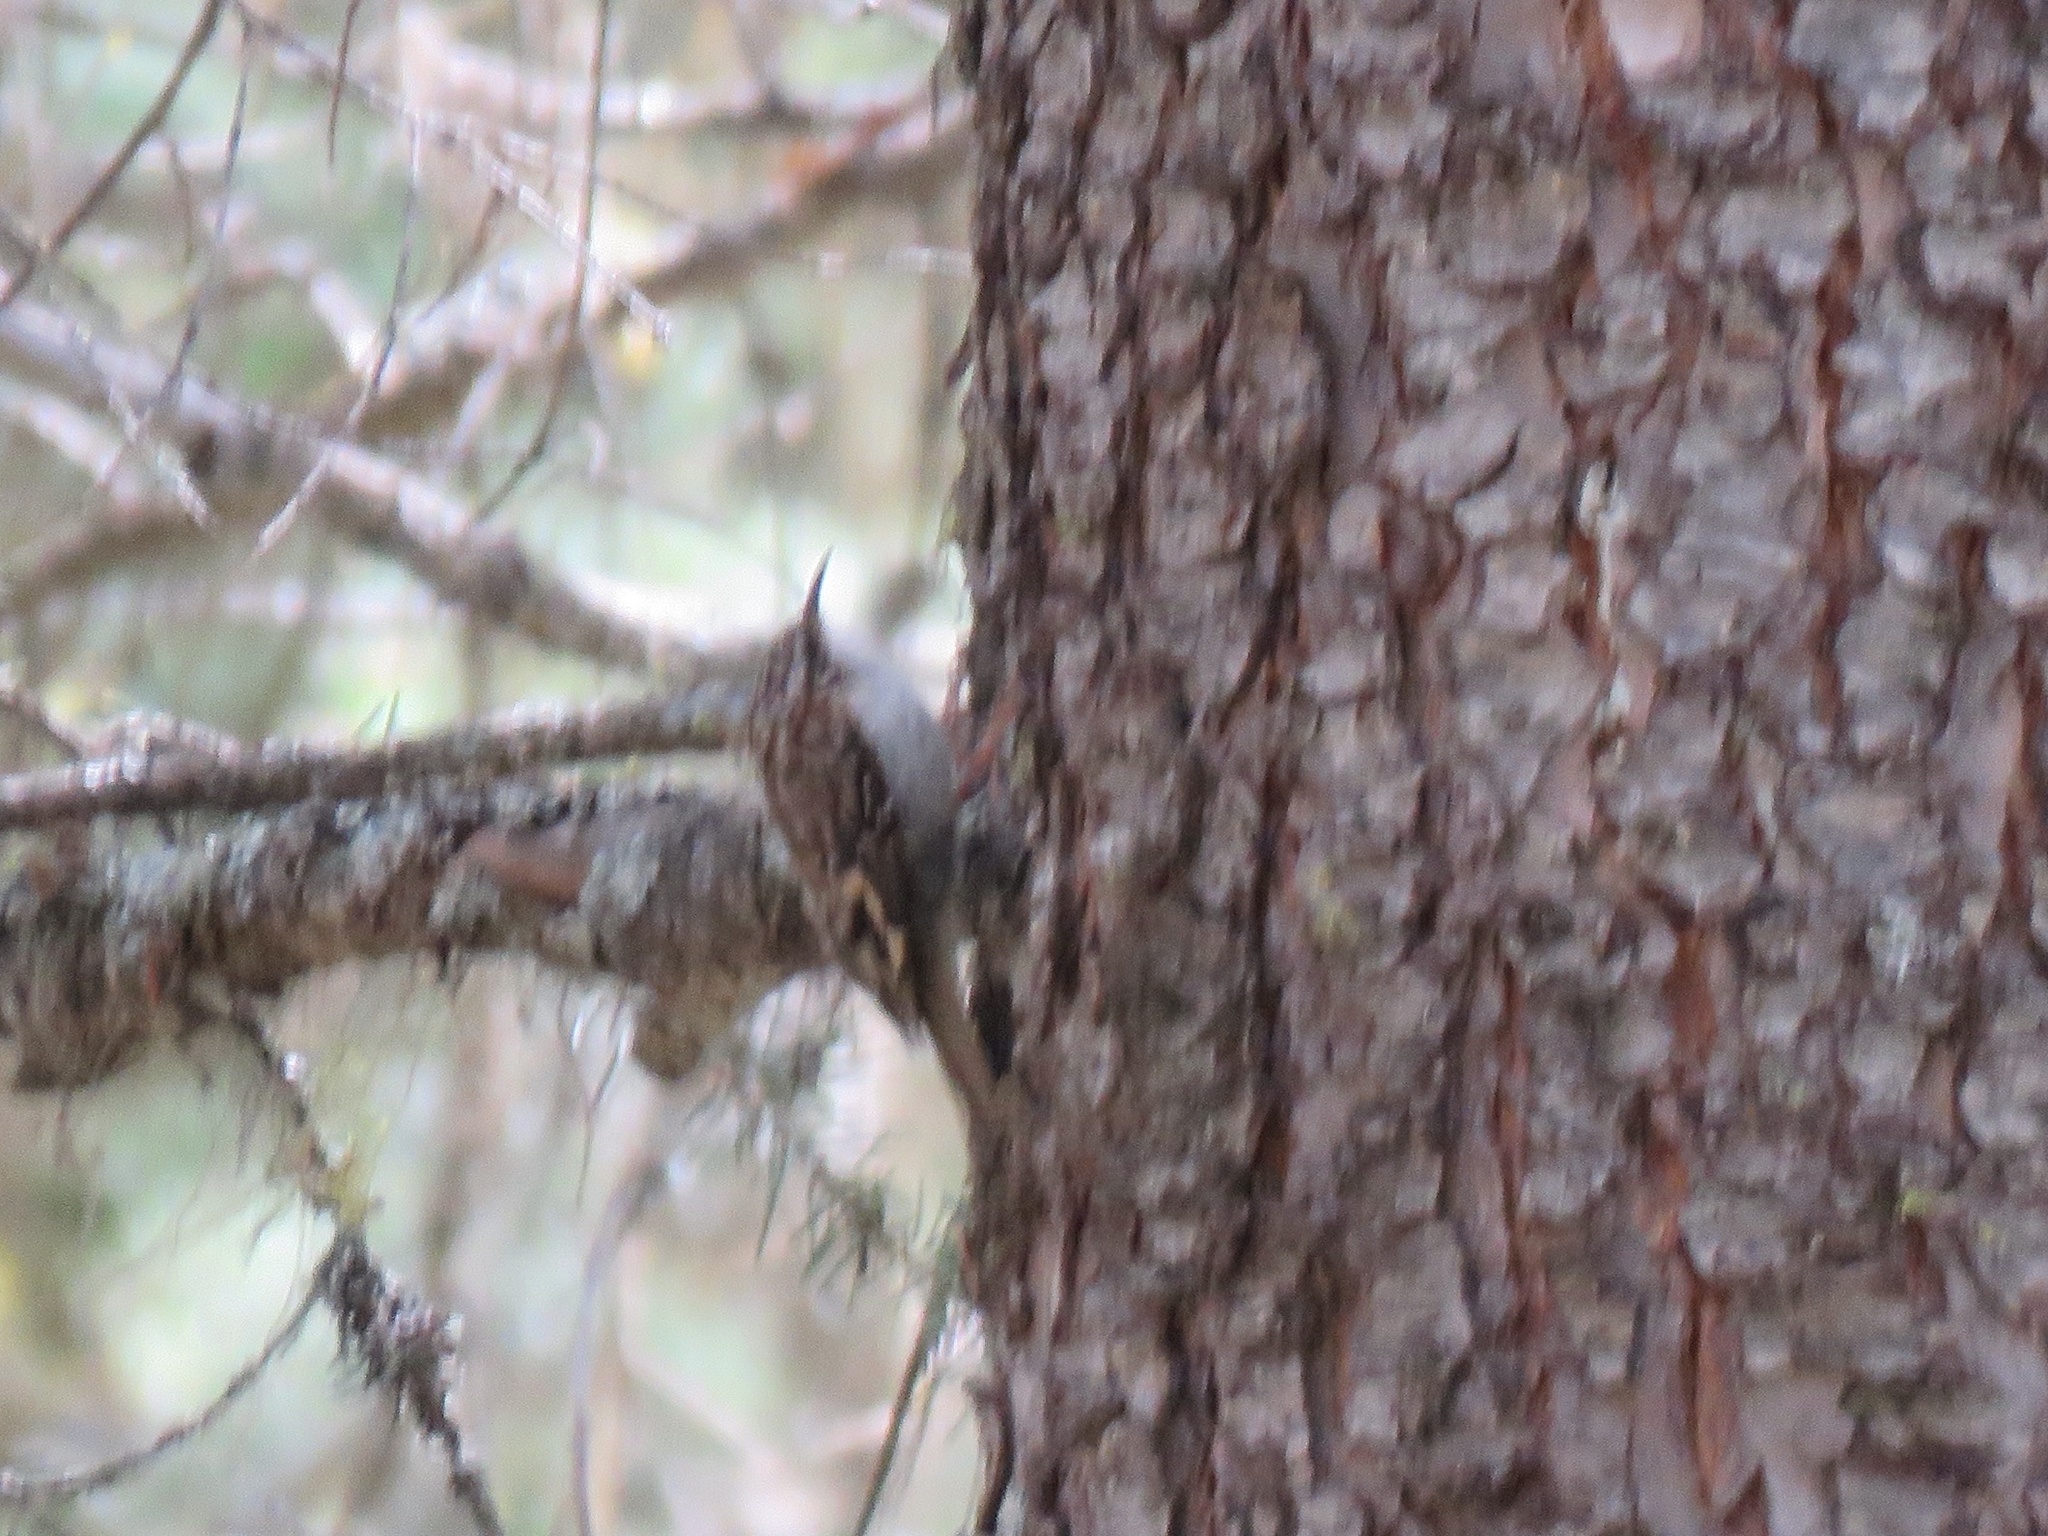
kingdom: Animalia
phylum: Chordata
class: Aves
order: Passeriformes
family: Certhiidae
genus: Certhia
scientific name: Certhia americana
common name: Brown creeper
